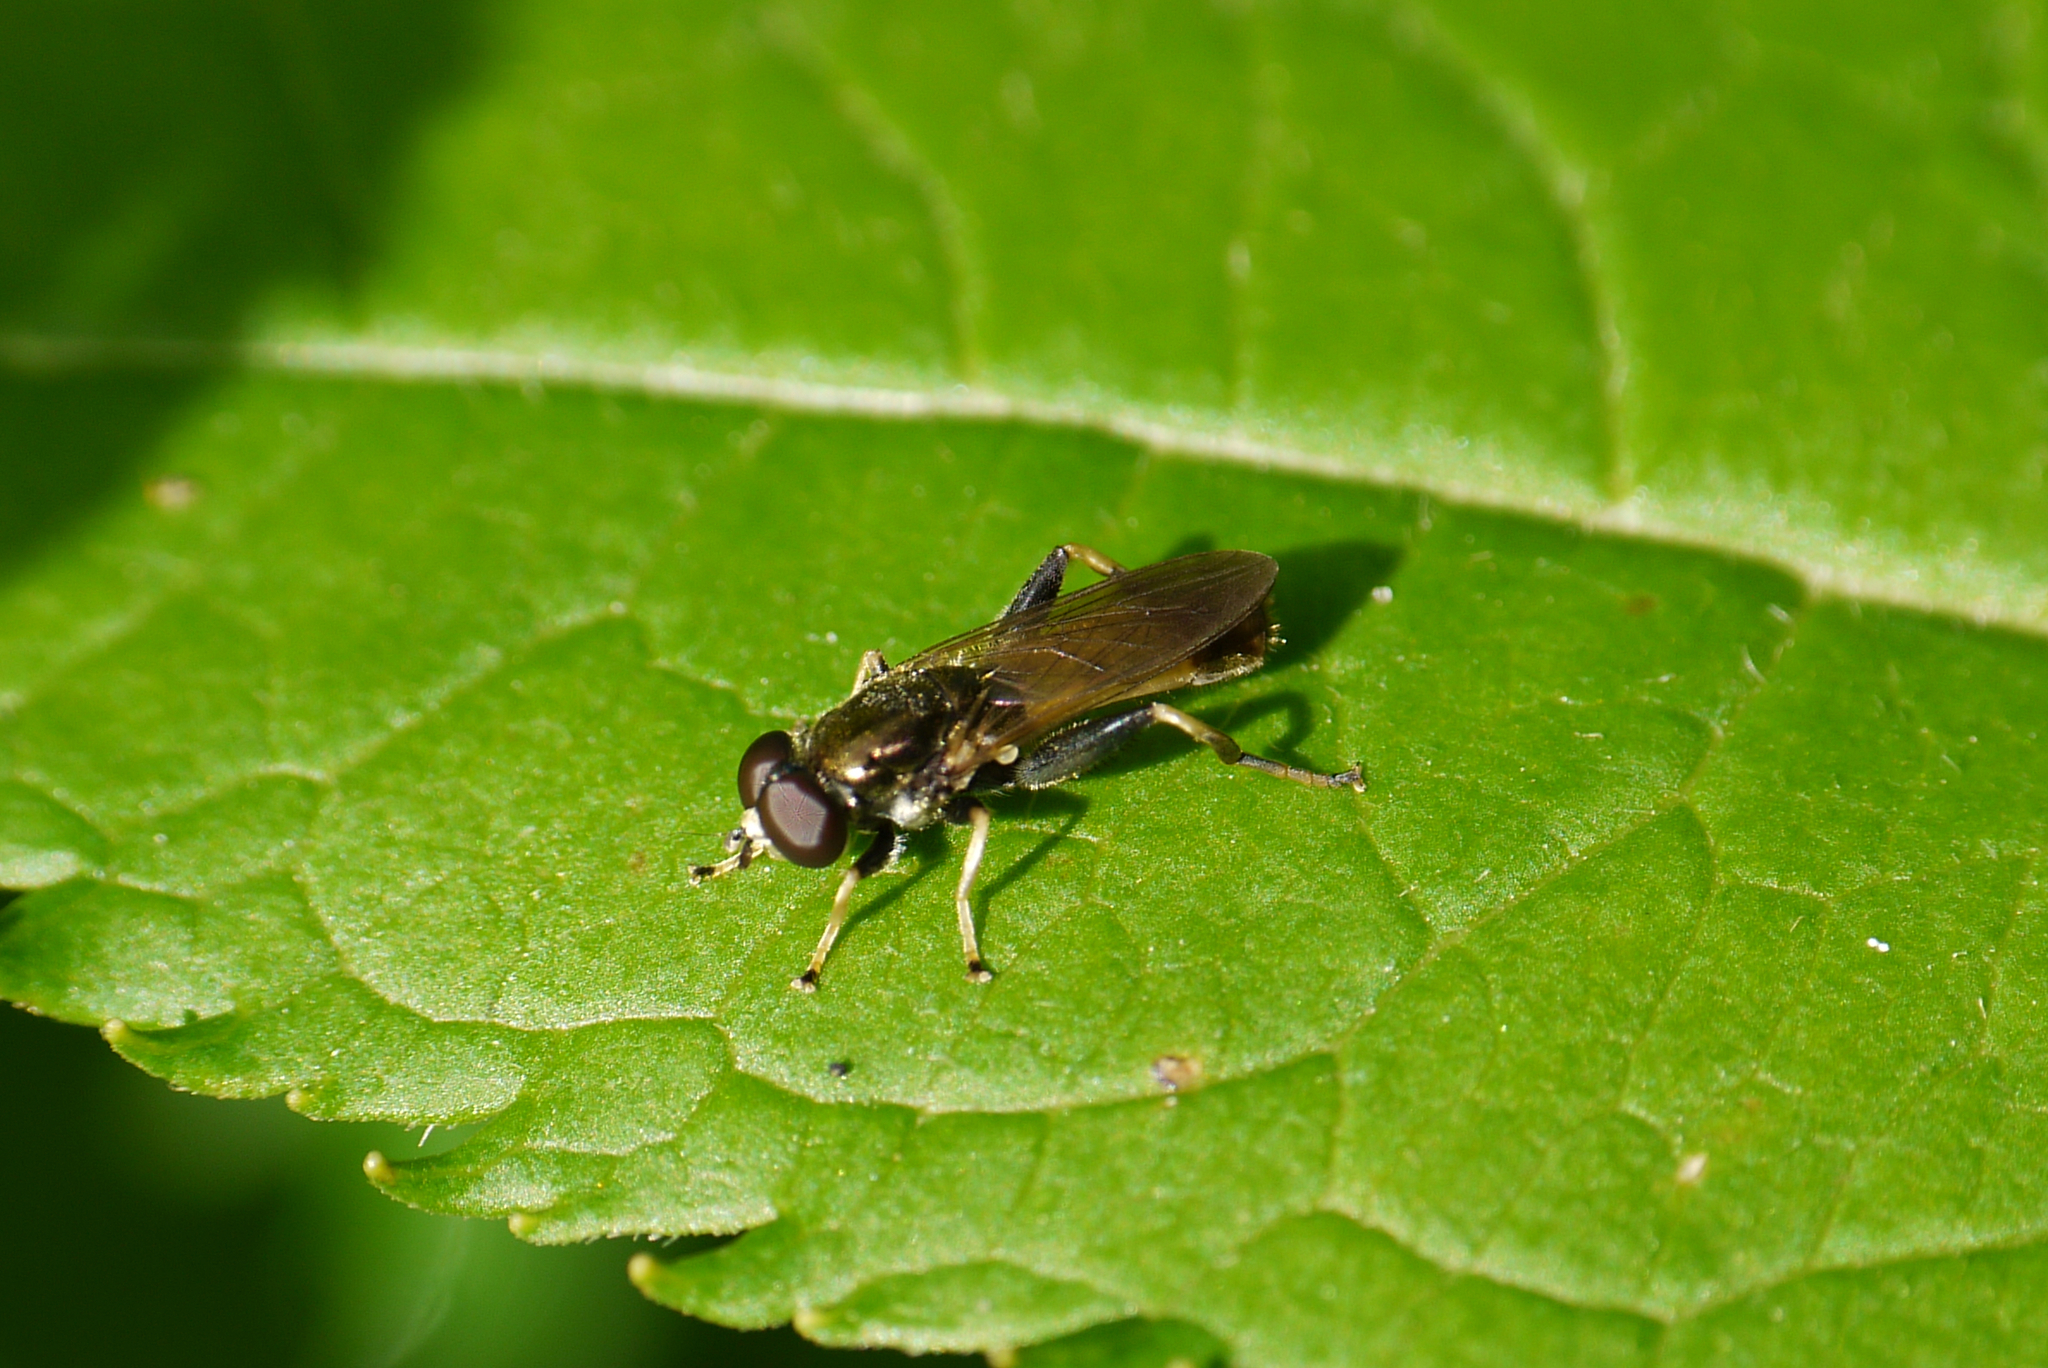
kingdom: Animalia
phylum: Arthropoda
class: Insecta
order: Diptera
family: Syrphidae
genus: Xylota
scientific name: Xylota segnis
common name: Brown-toed forest fly
